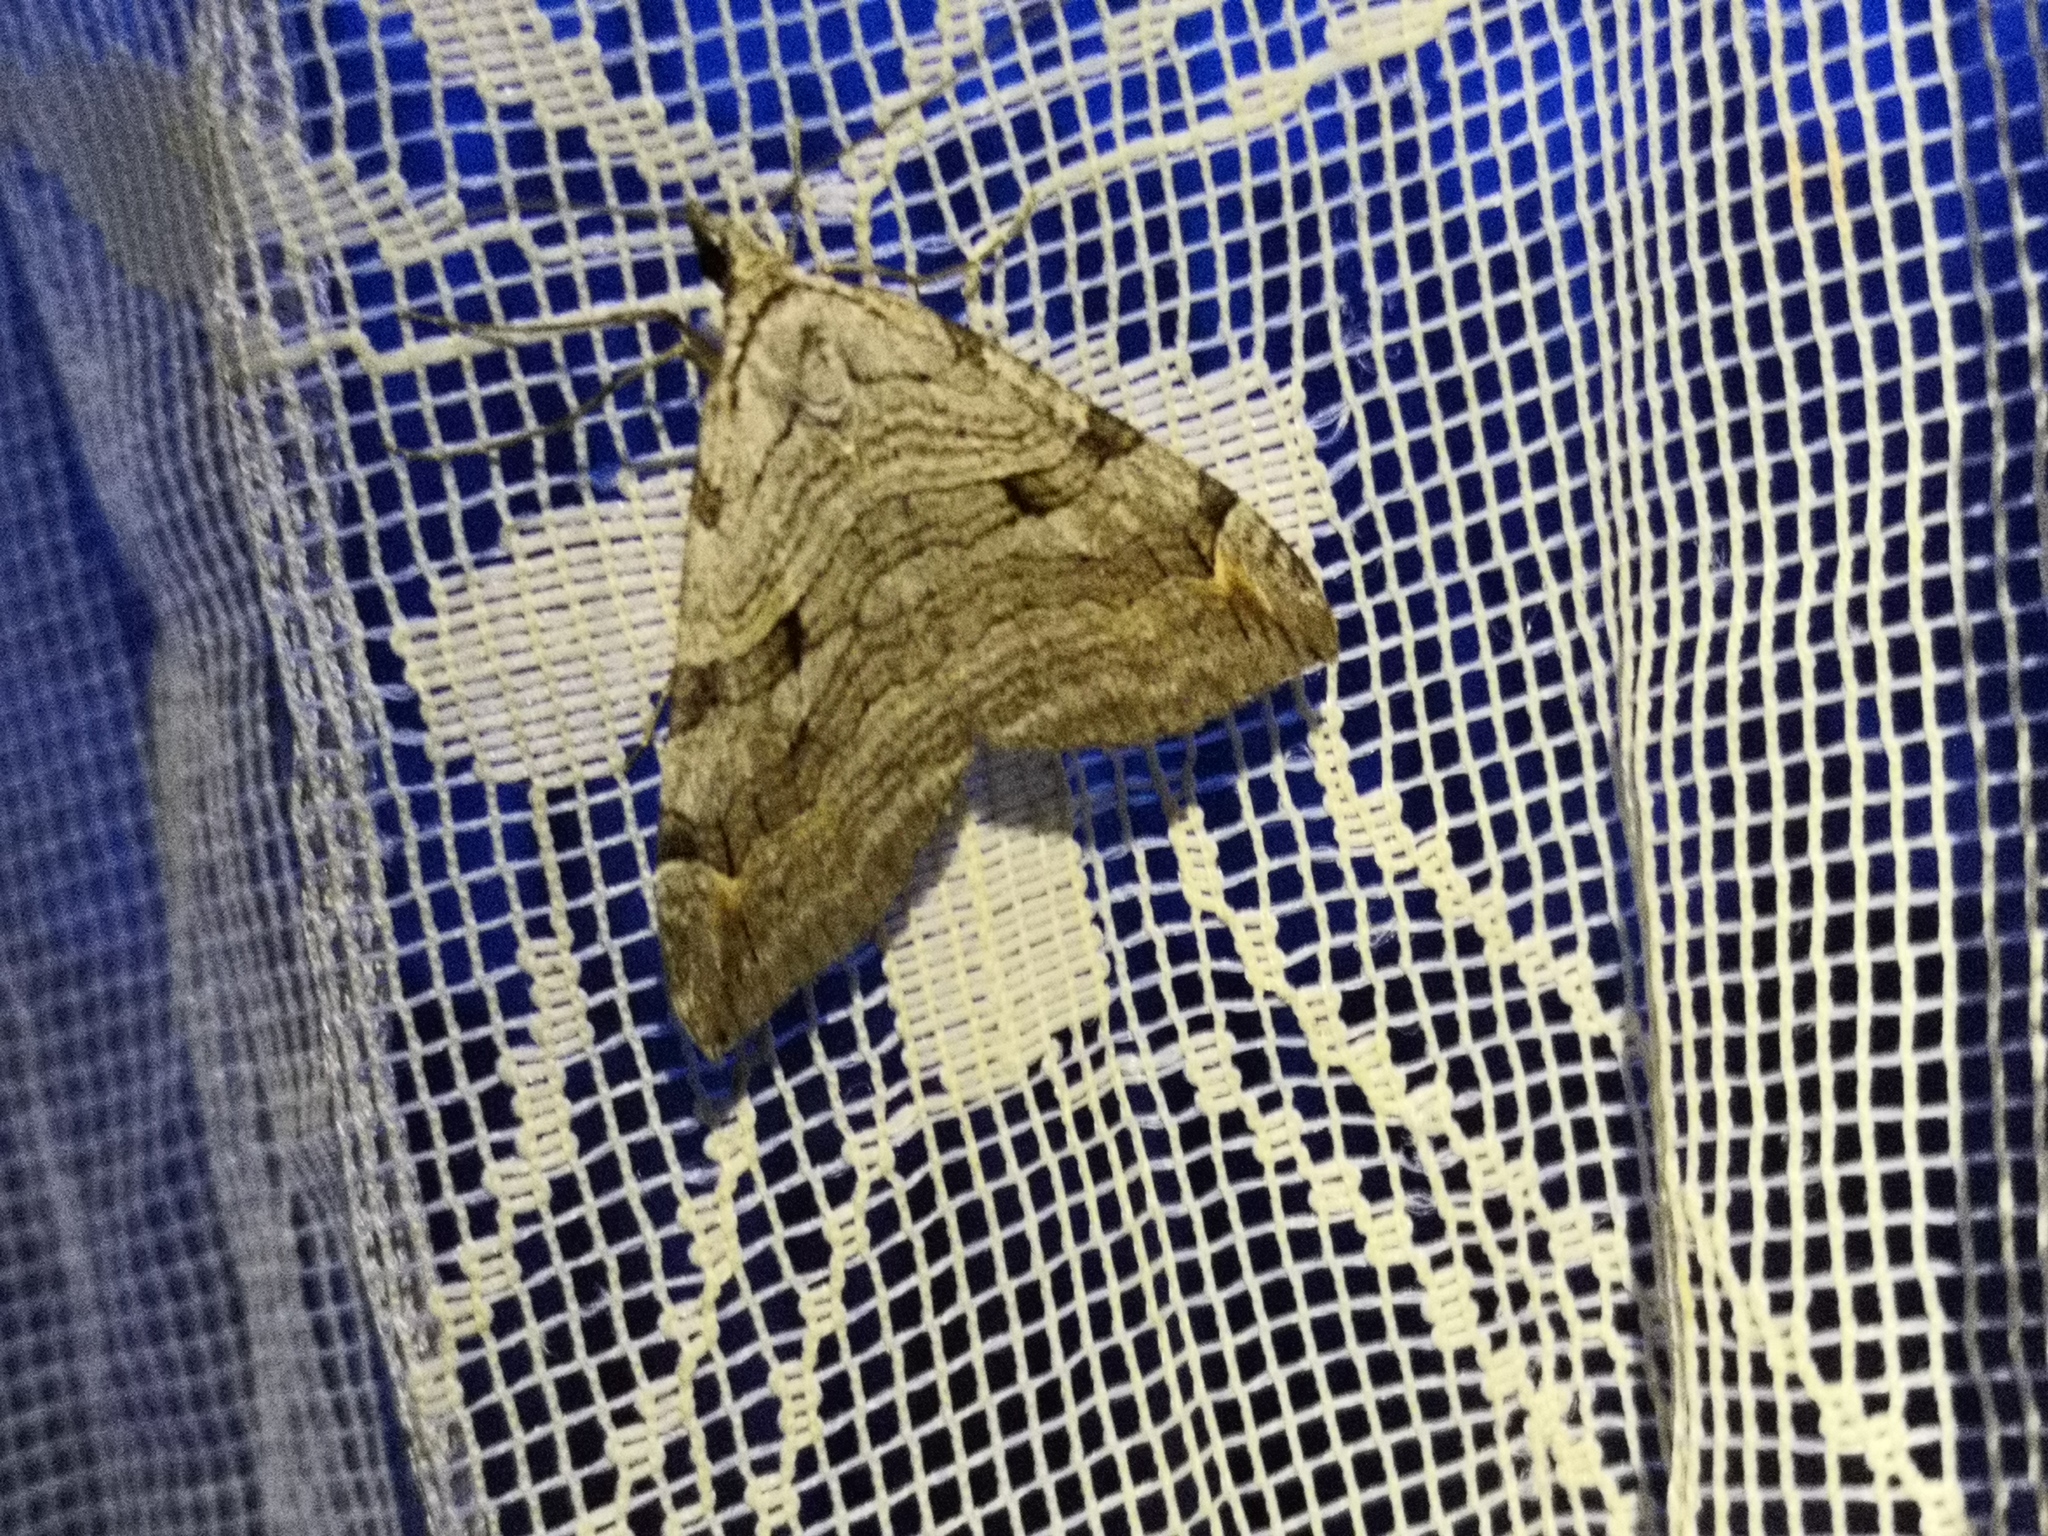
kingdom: Animalia
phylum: Arthropoda
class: Insecta
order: Lepidoptera
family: Geometridae
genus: Aplocera
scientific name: Aplocera plagiata
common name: Treble-bar
